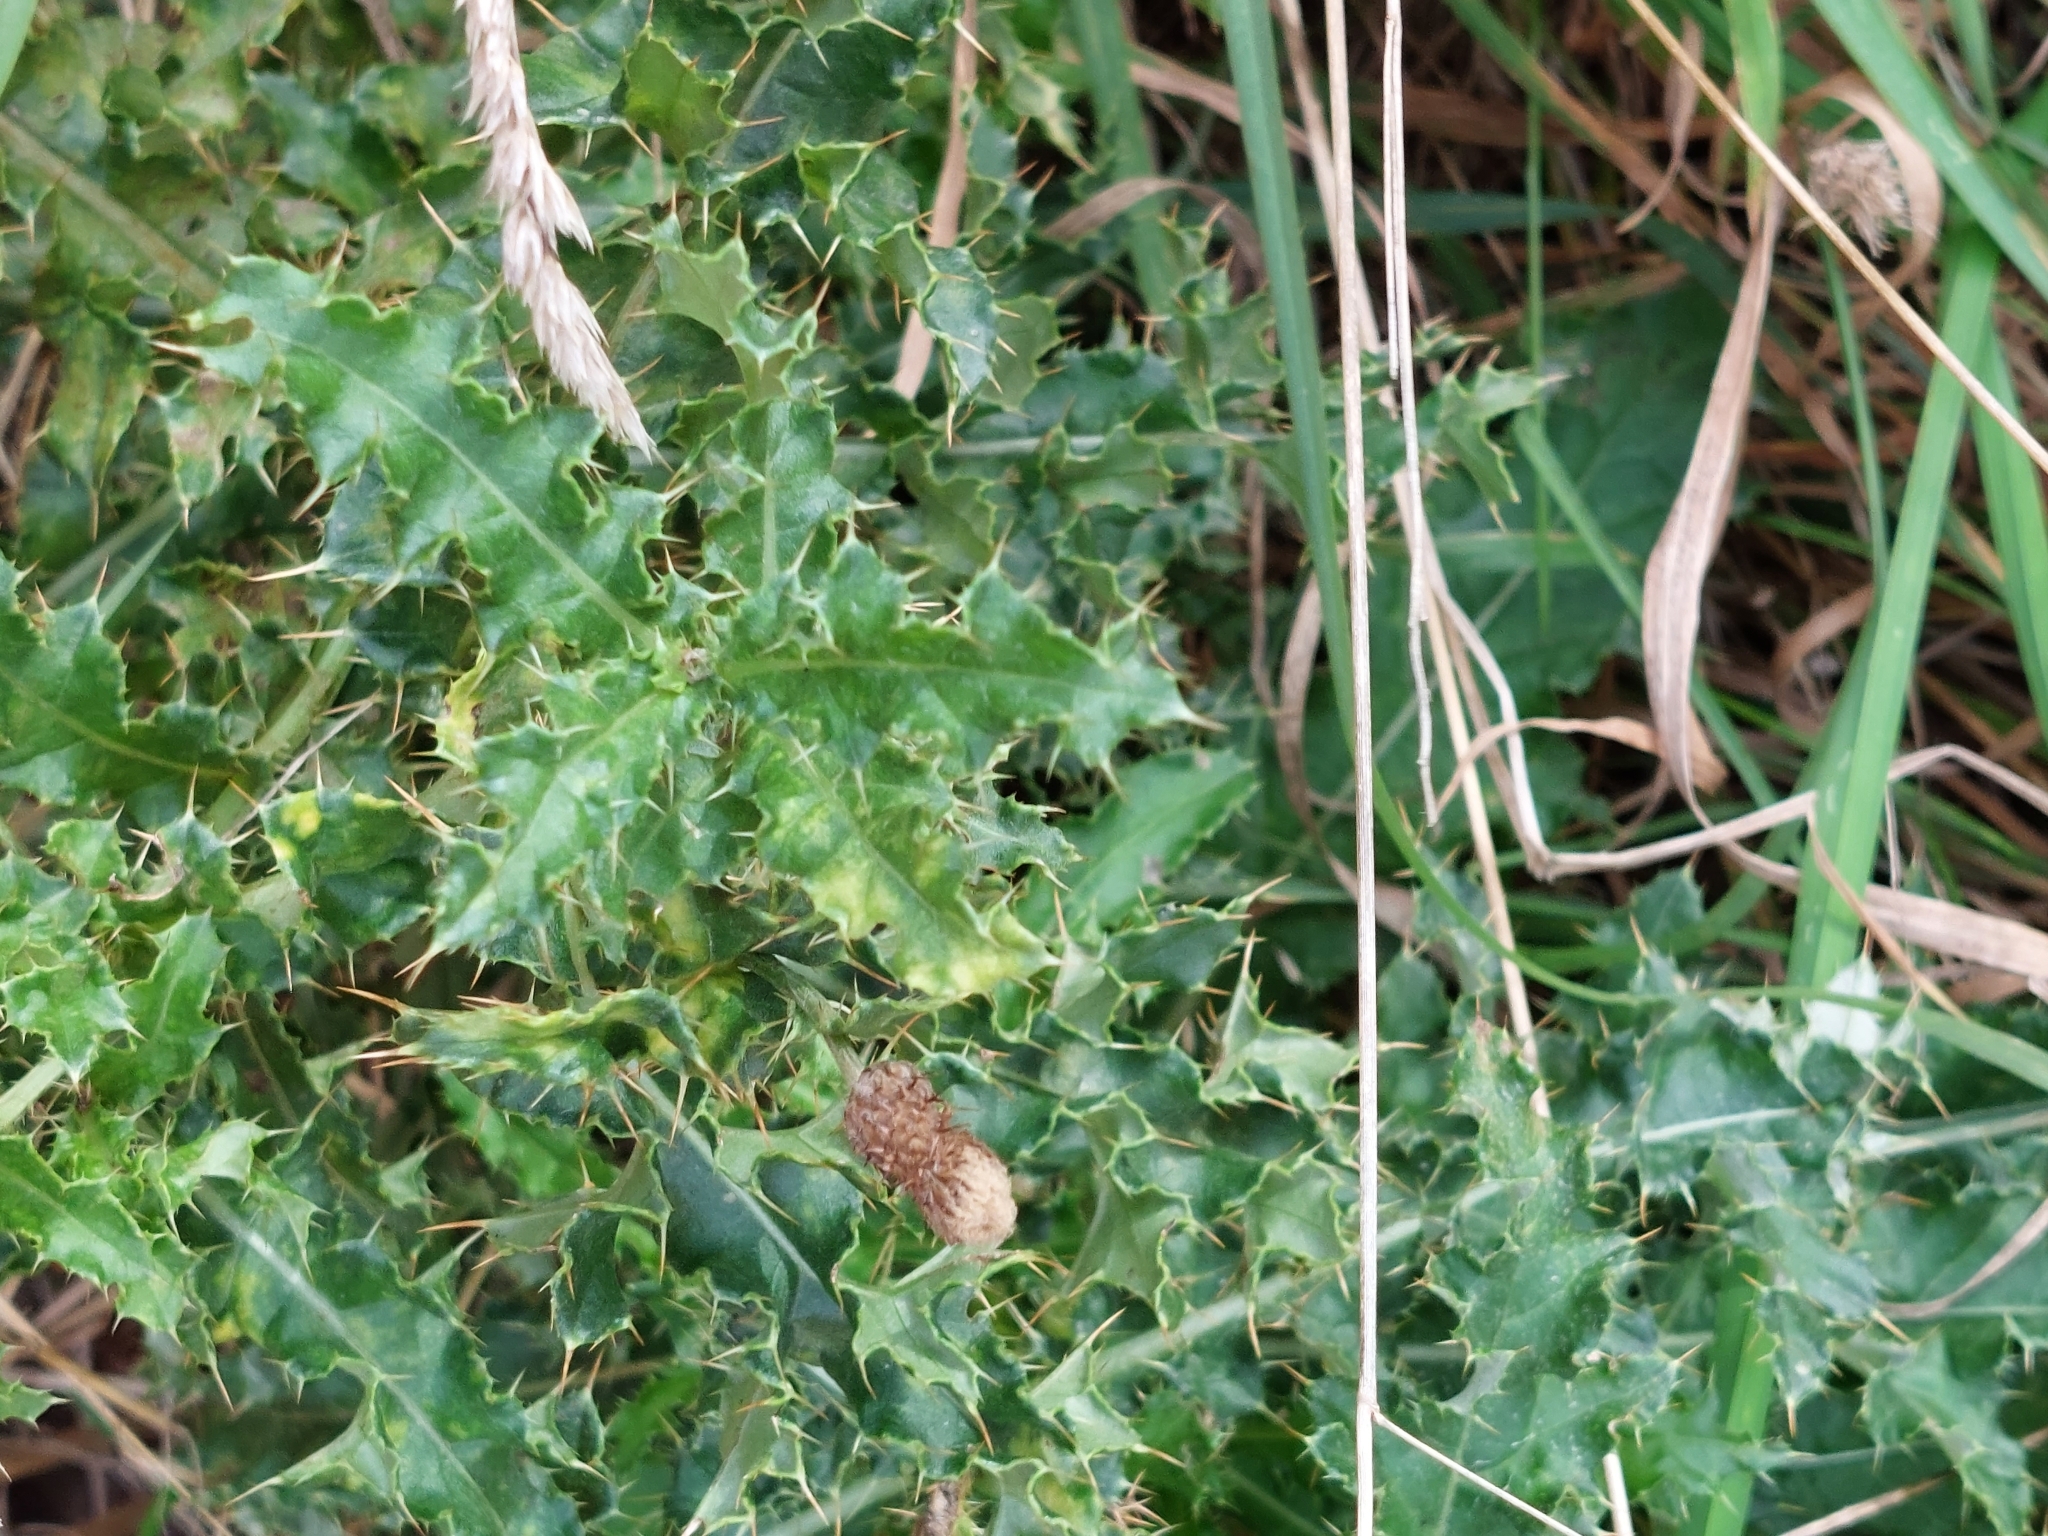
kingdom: Plantae
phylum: Tracheophyta
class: Magnoliopsida
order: Asterales
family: Asteraceae
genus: Cirsium
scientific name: Cirsium arvense
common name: Creeping thistle
